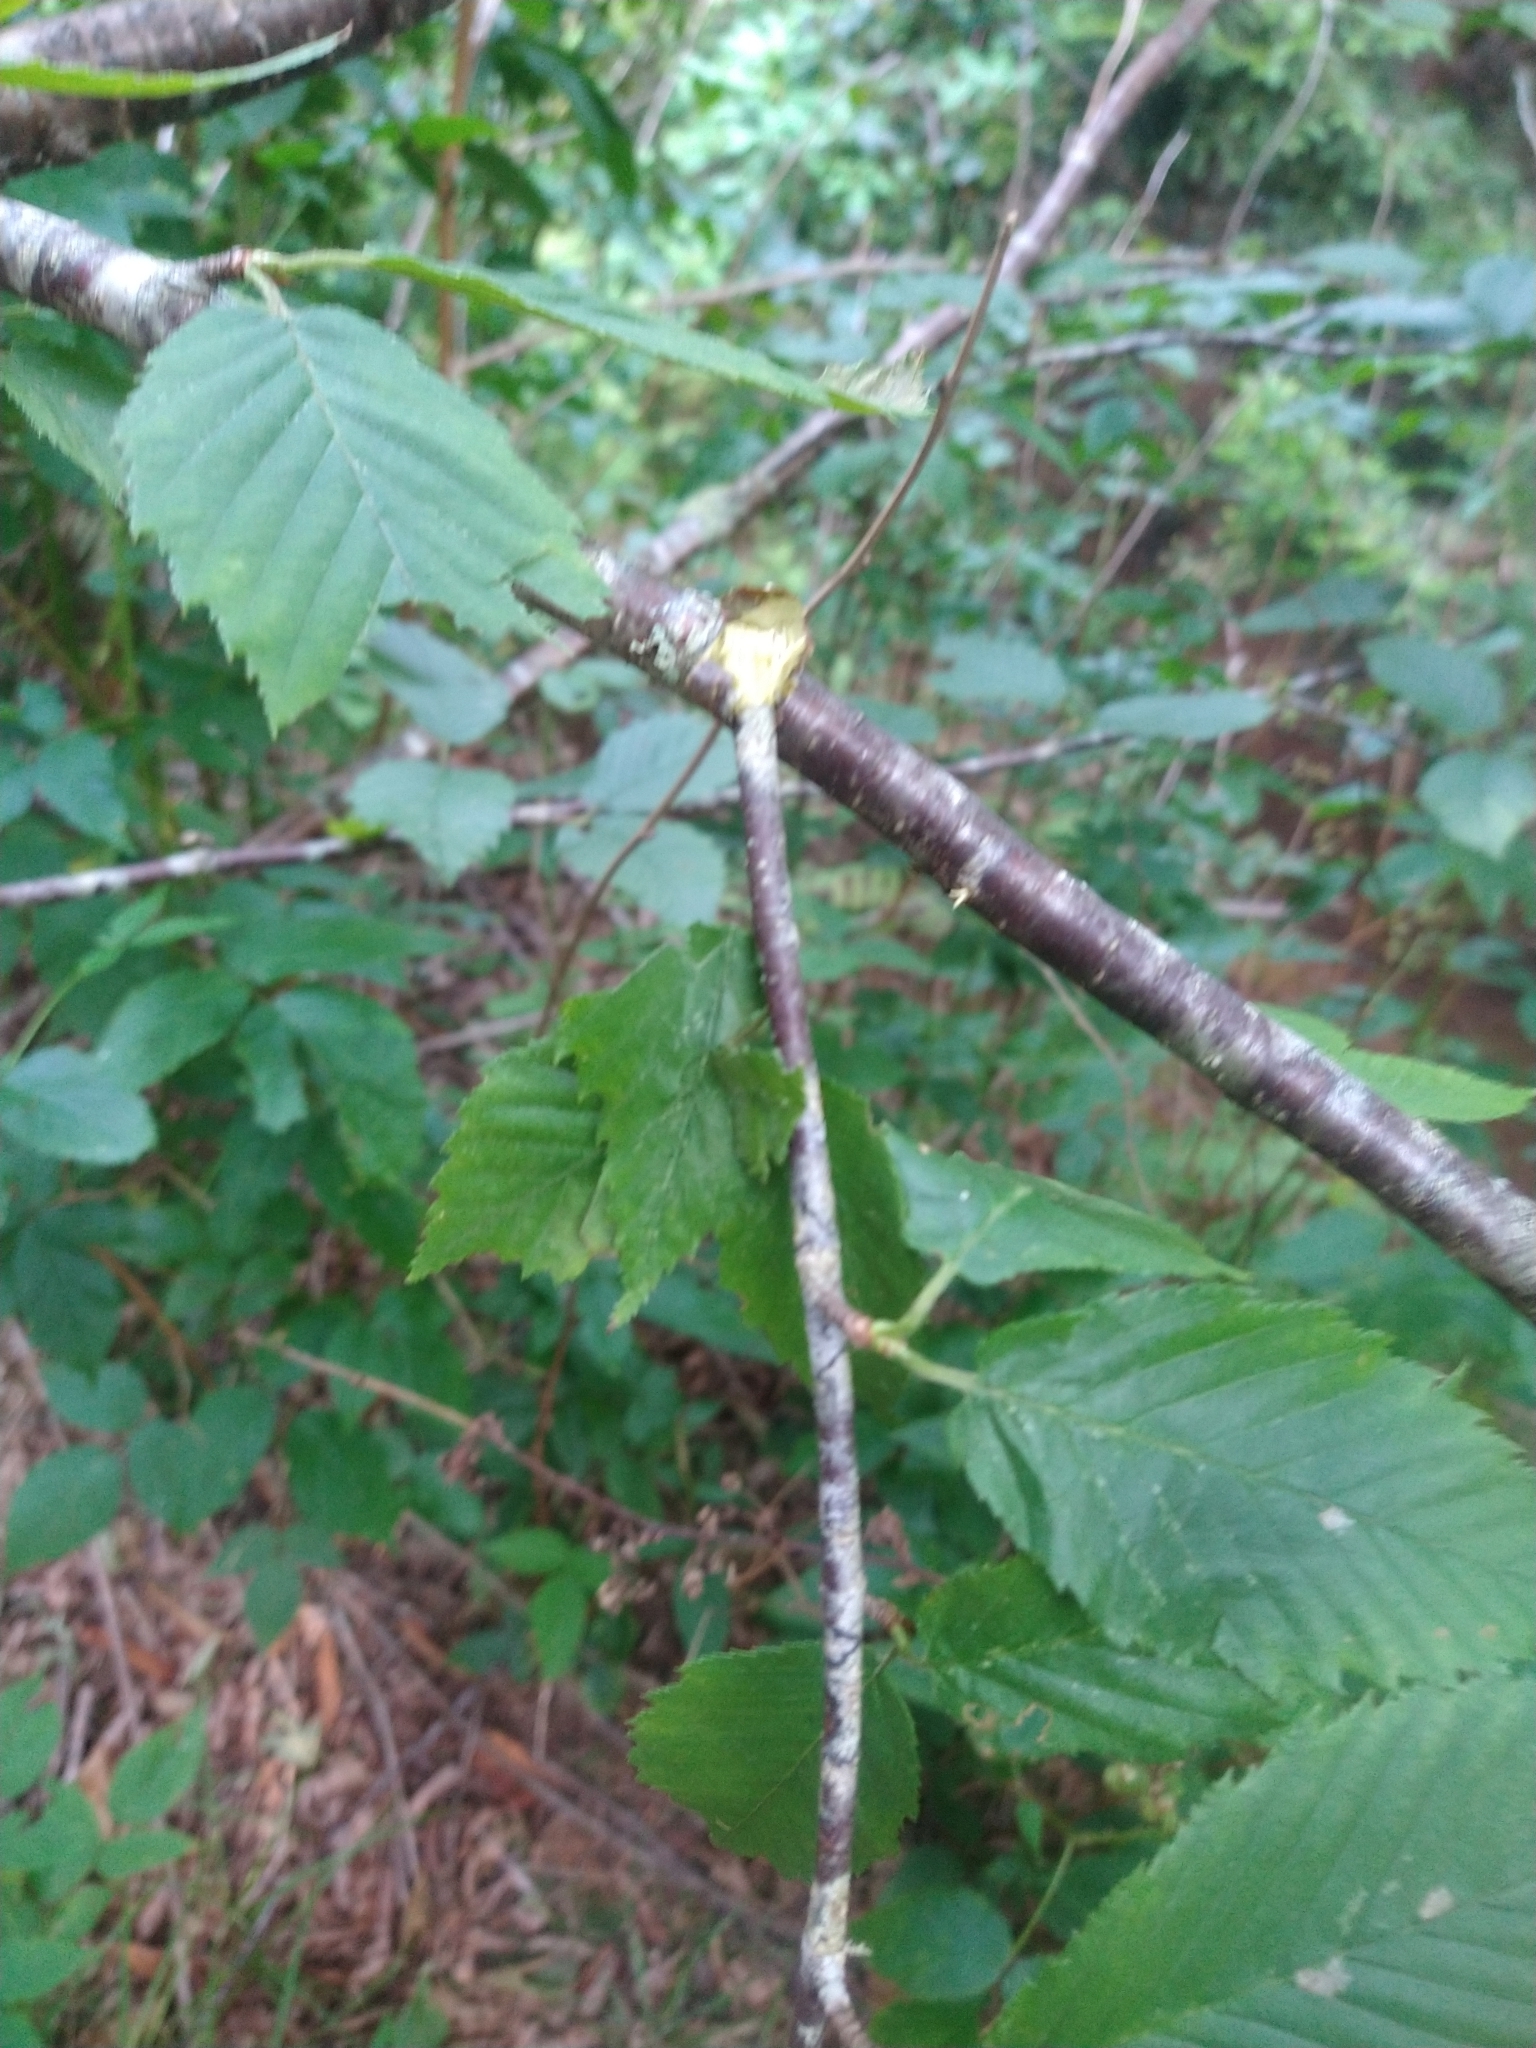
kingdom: Plantae
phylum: Tracheophyta
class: Magnoliopsida
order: Fagales
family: Betulaceae
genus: Betula
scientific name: Betula alleghaniensis
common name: Yellow birch
